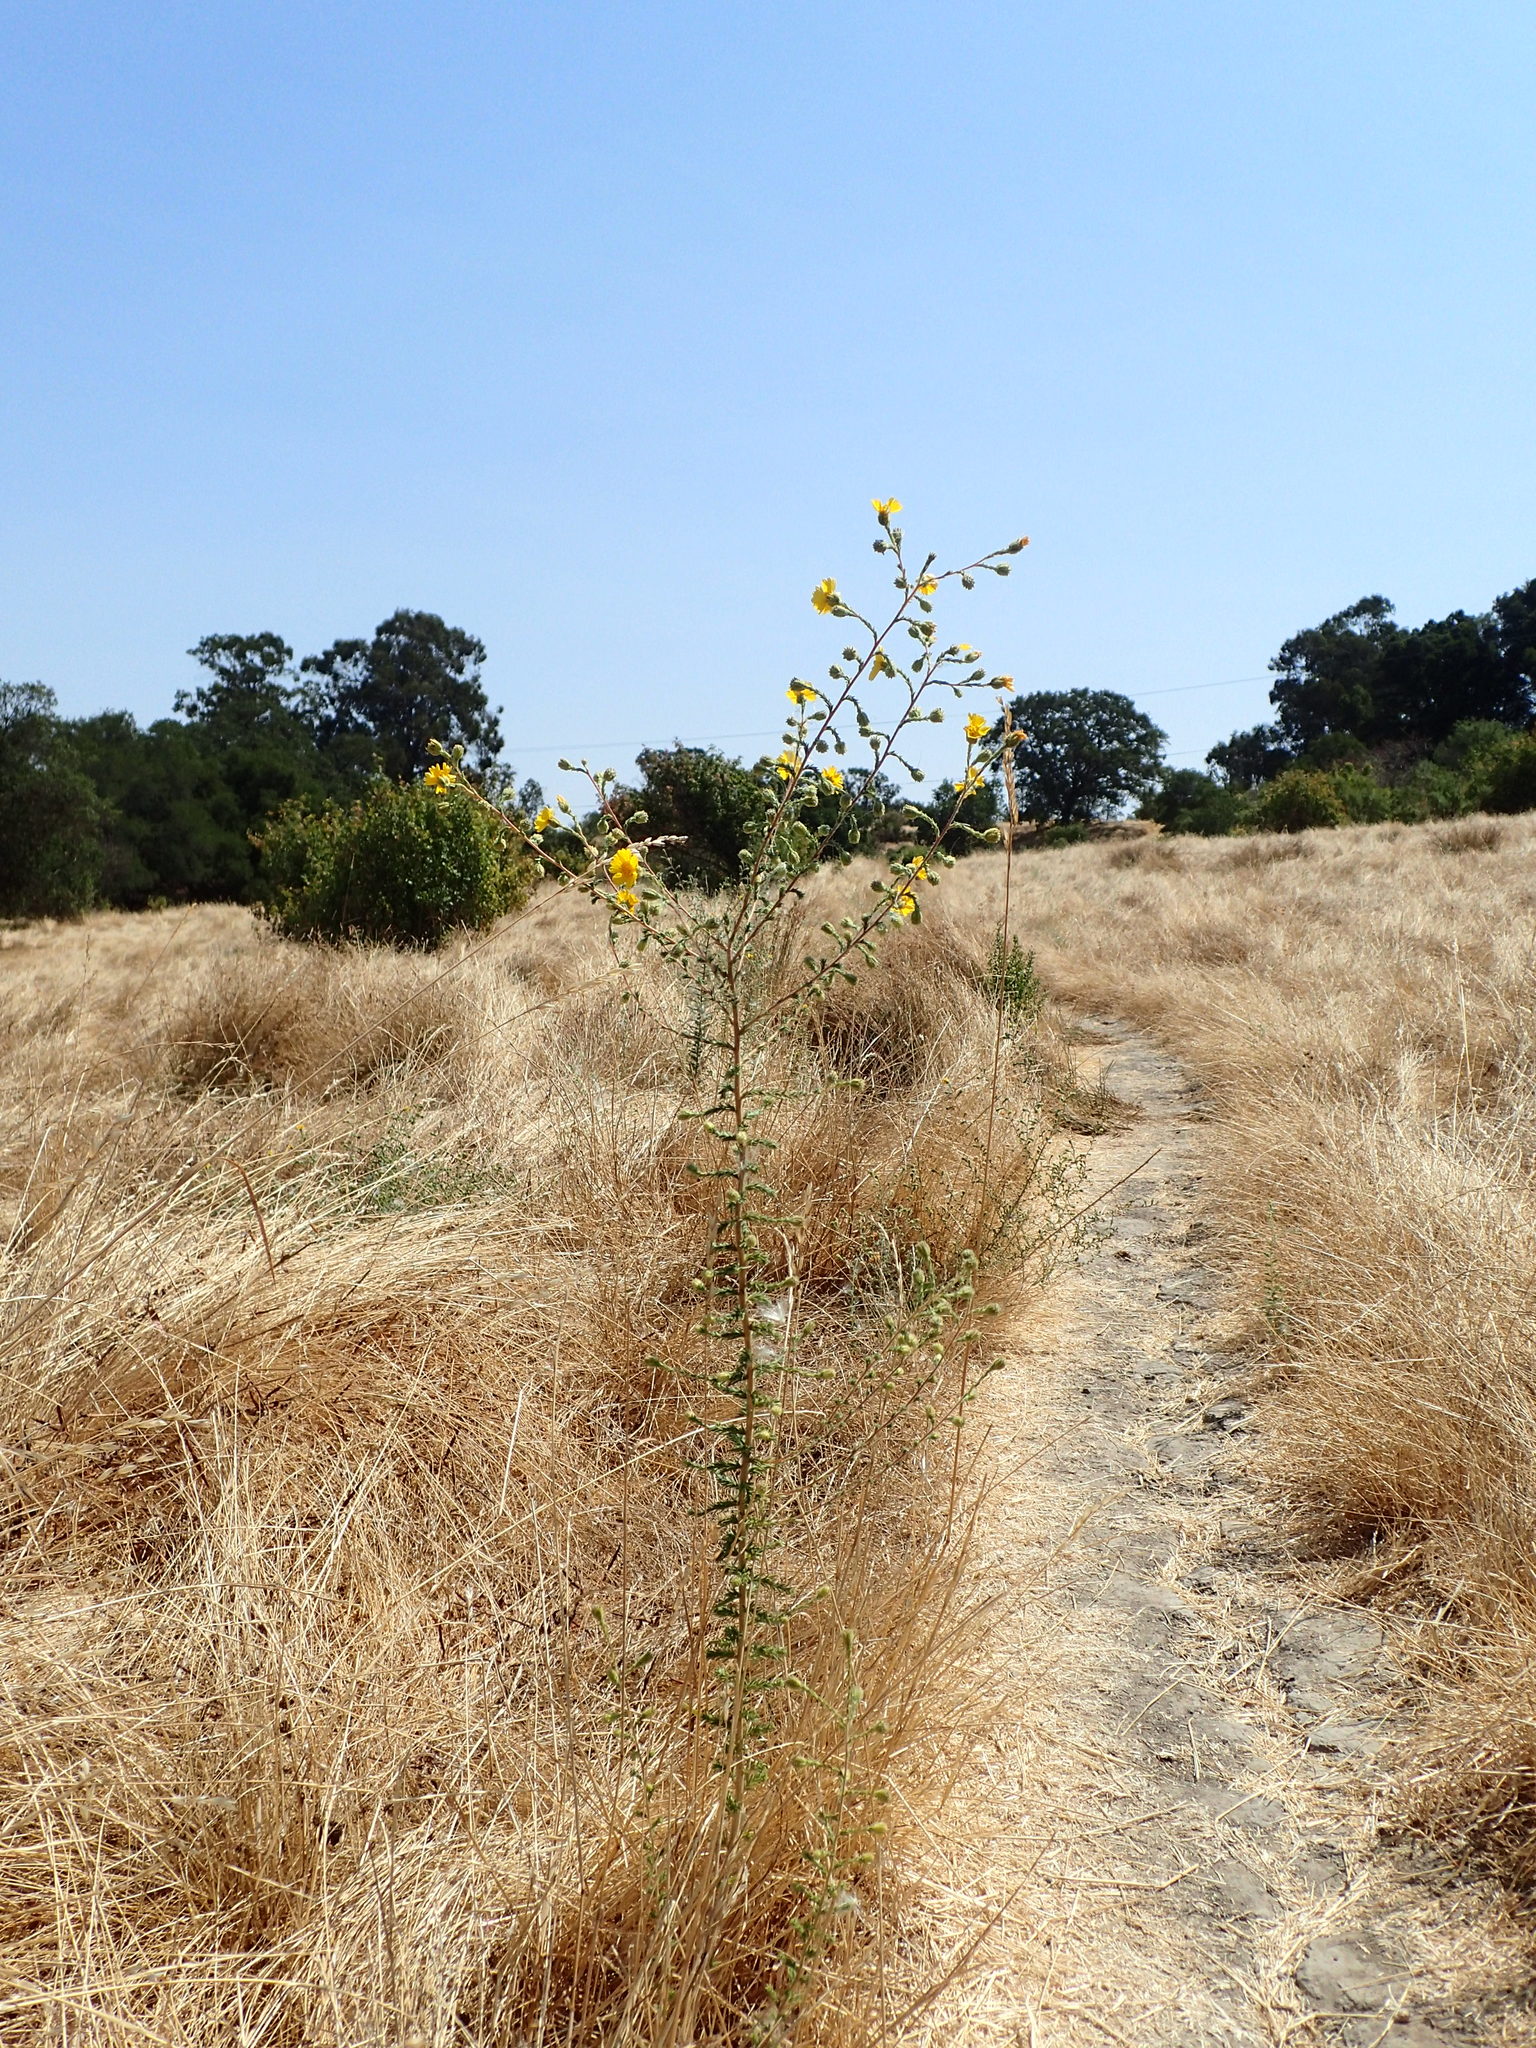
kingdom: Plantae
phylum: Tracheophyta
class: Magnoliopsida
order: Asterales
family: Asteraceae
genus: Holocarpha
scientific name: Holocarpha heermannii
